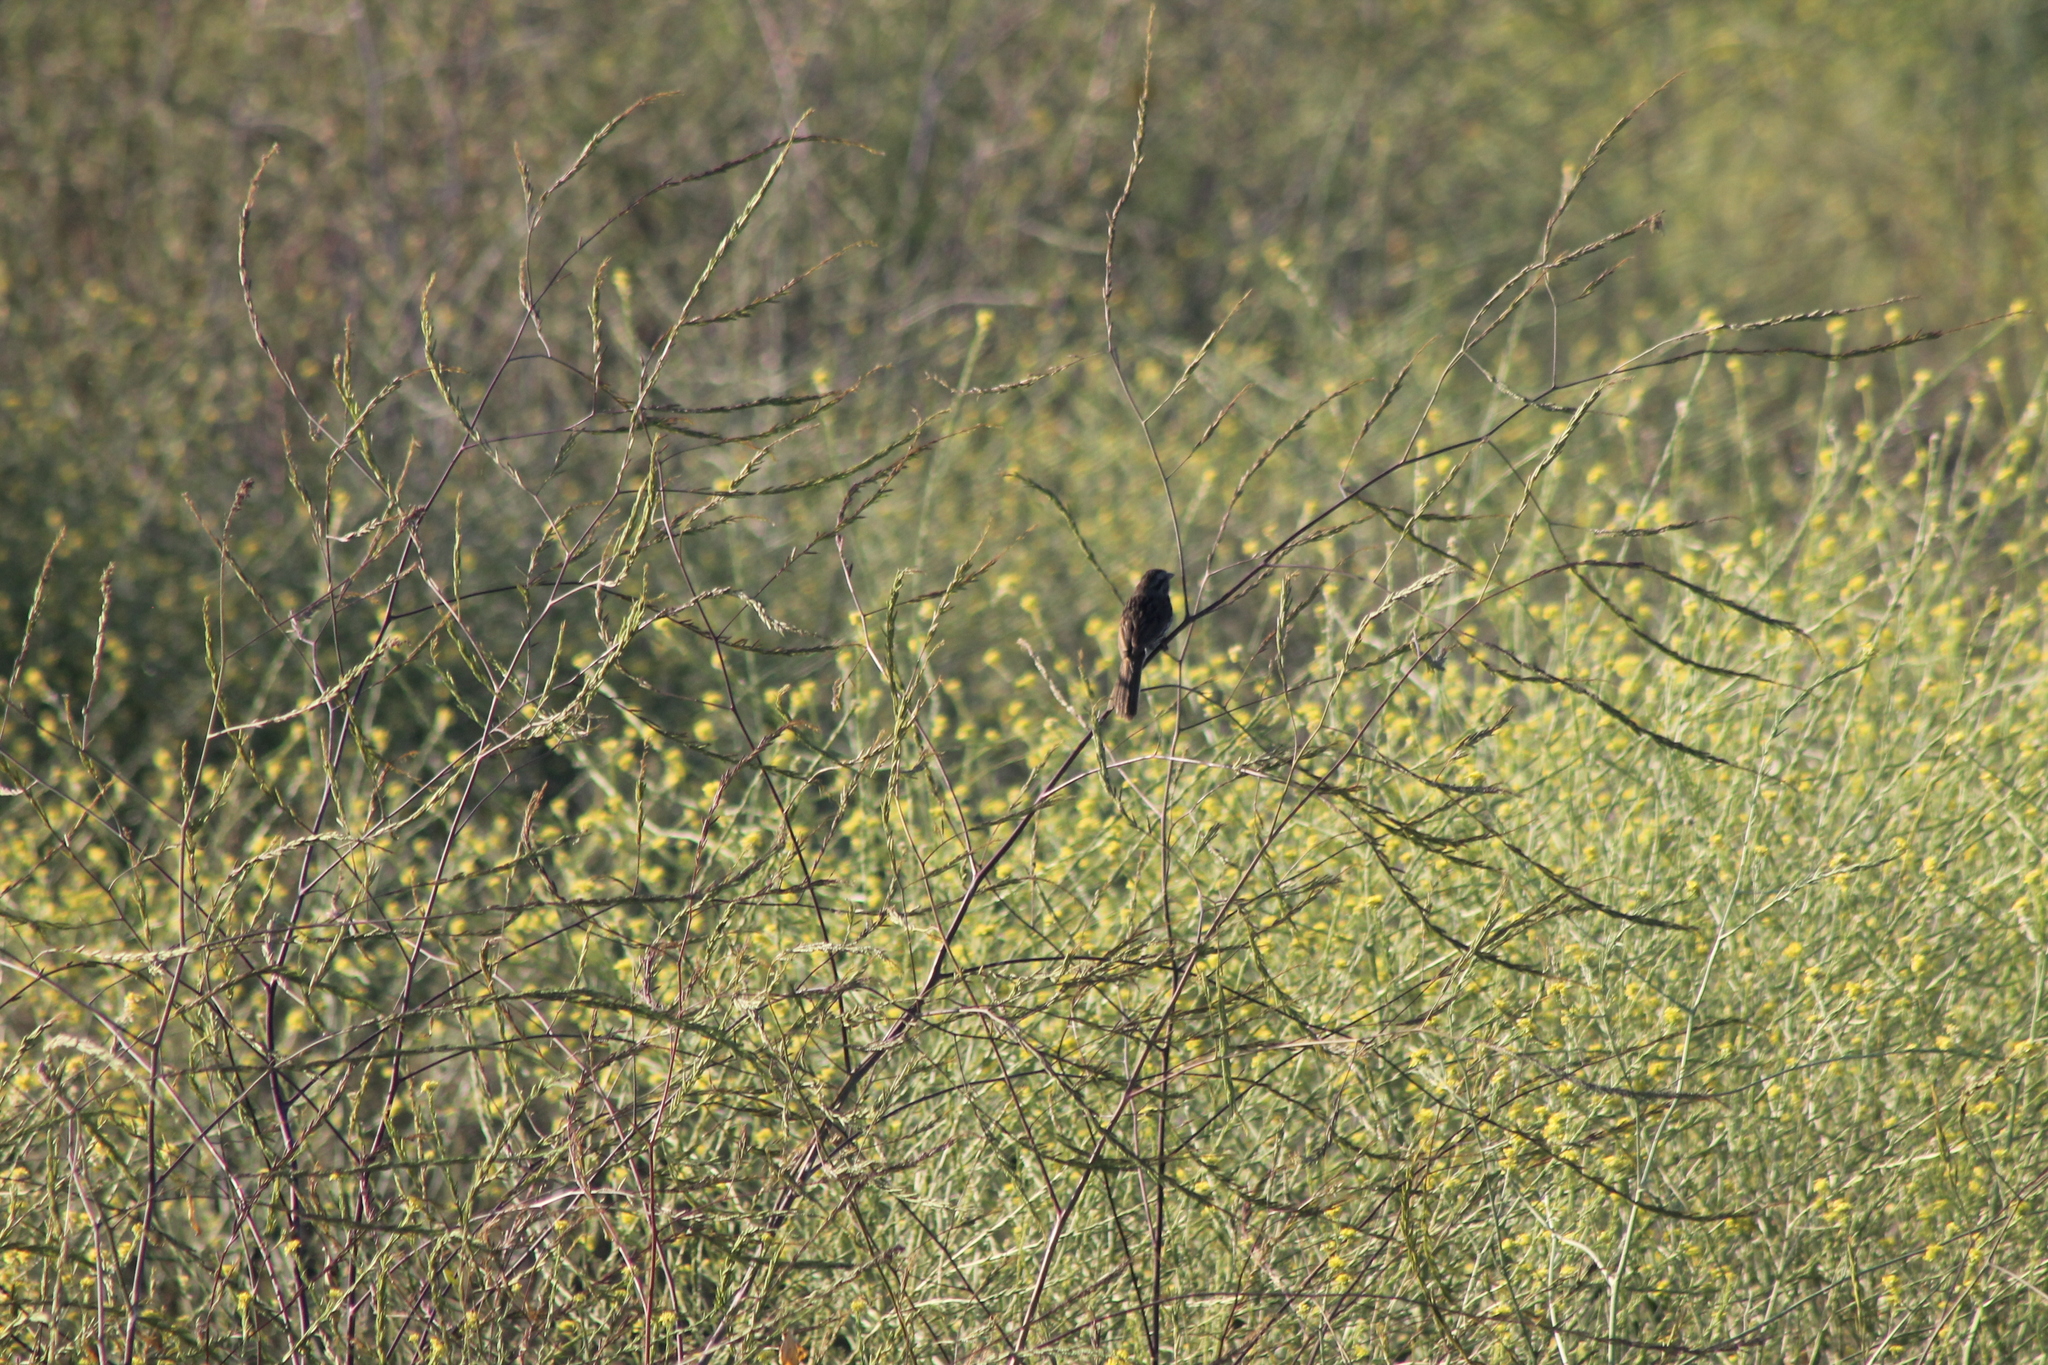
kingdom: Animalia
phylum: Chordata
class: Aves
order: Passeriformes
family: Passerellidae
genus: Melospiza
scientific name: Melospiza melodia
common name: Song sparrow
